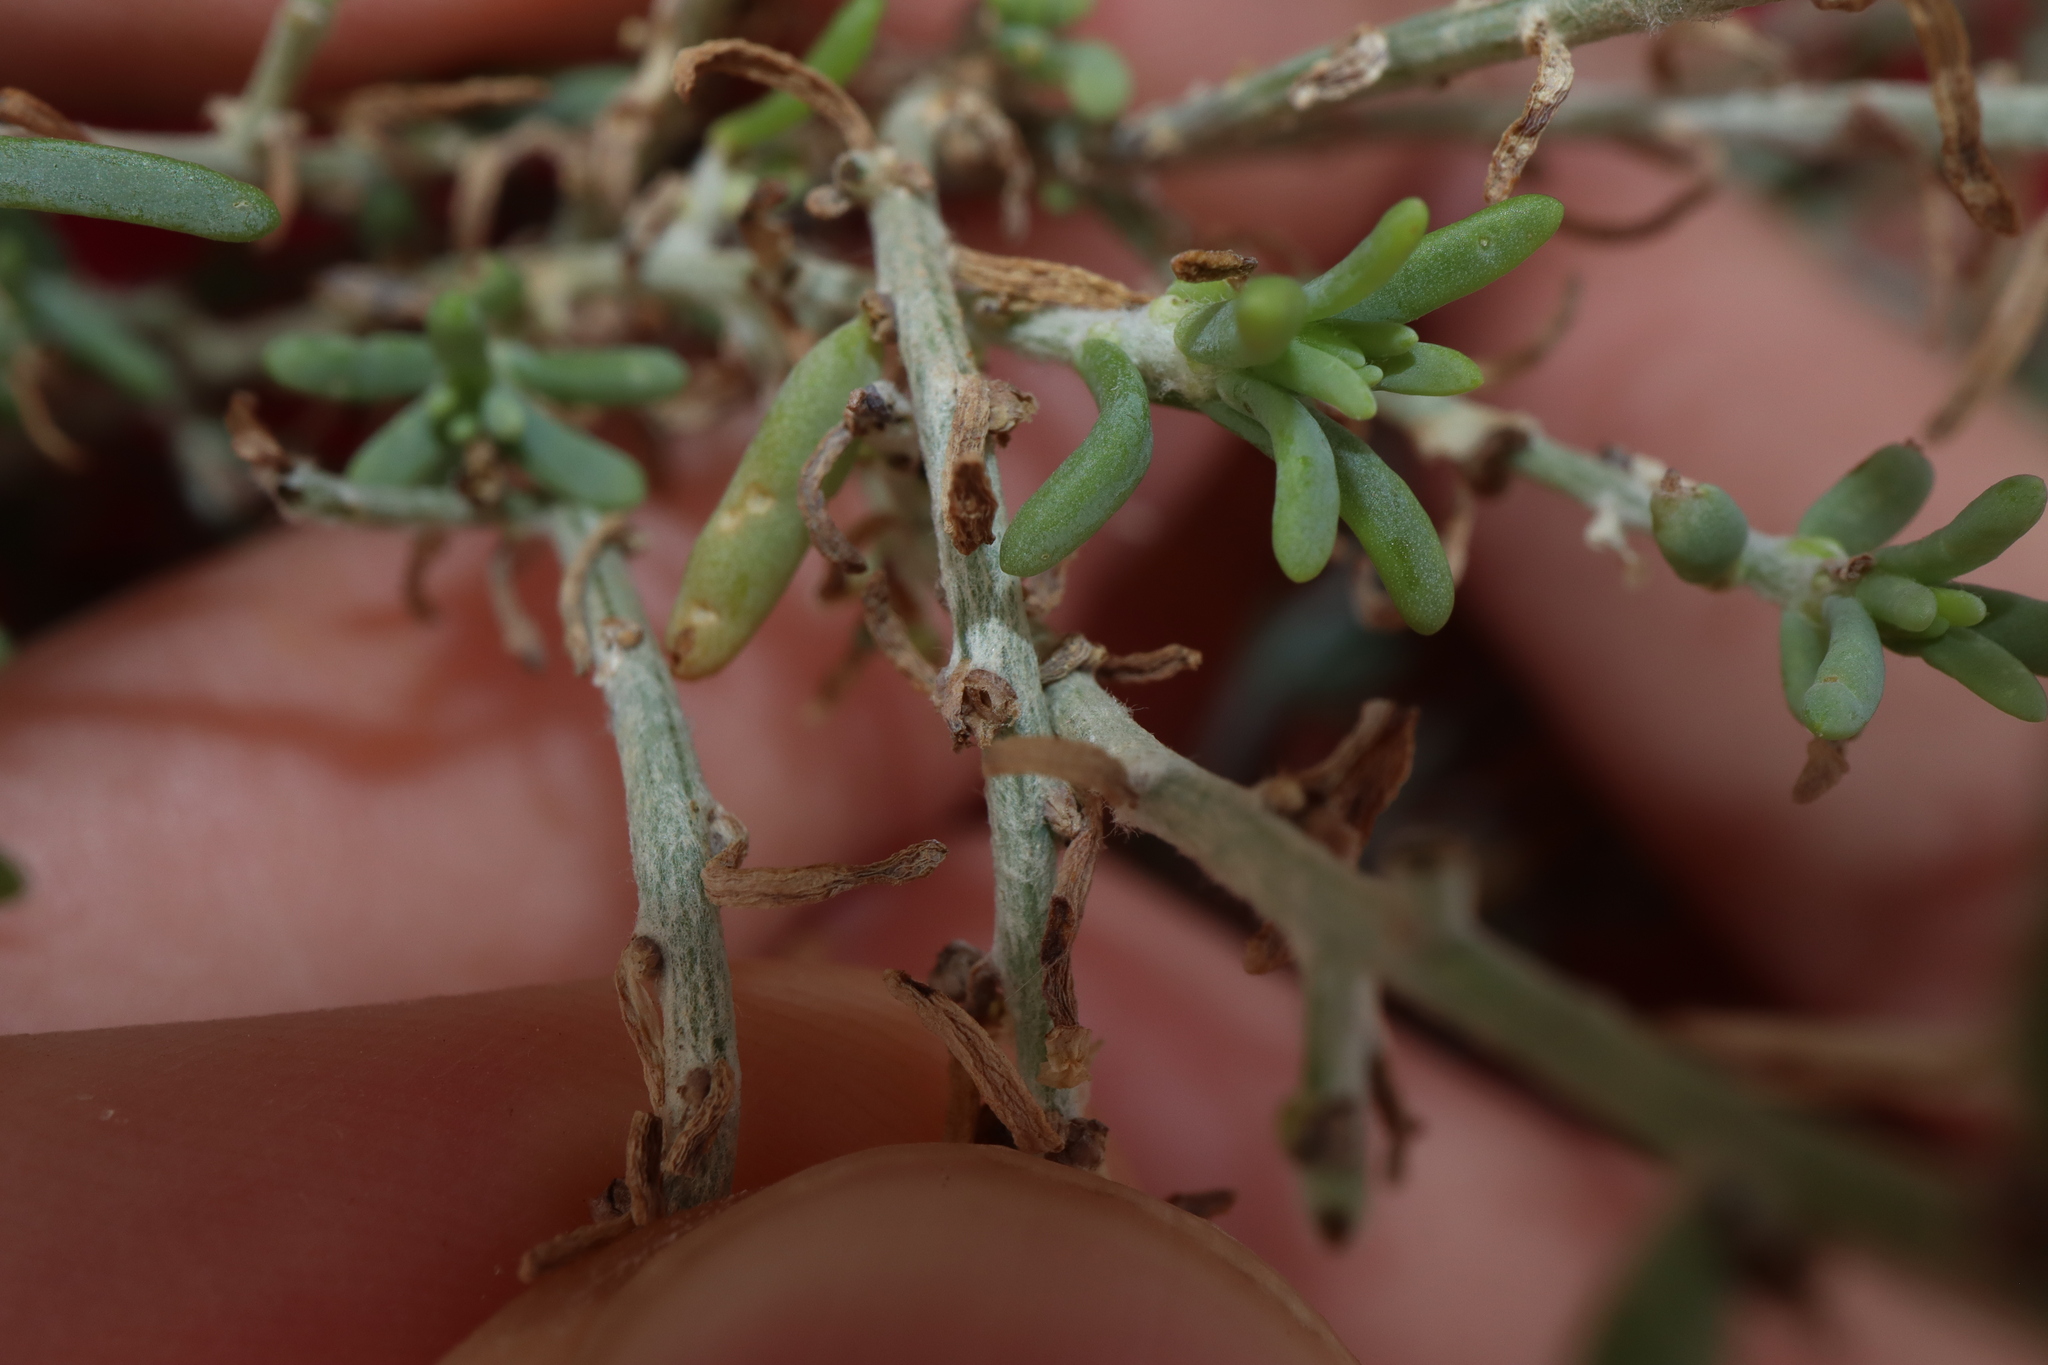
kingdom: Plantae
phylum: Tracheophyta
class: Magnoliopsida
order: Caryophyllales
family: Amaranthaceae
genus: Maireana
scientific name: Maireana microcarpa
